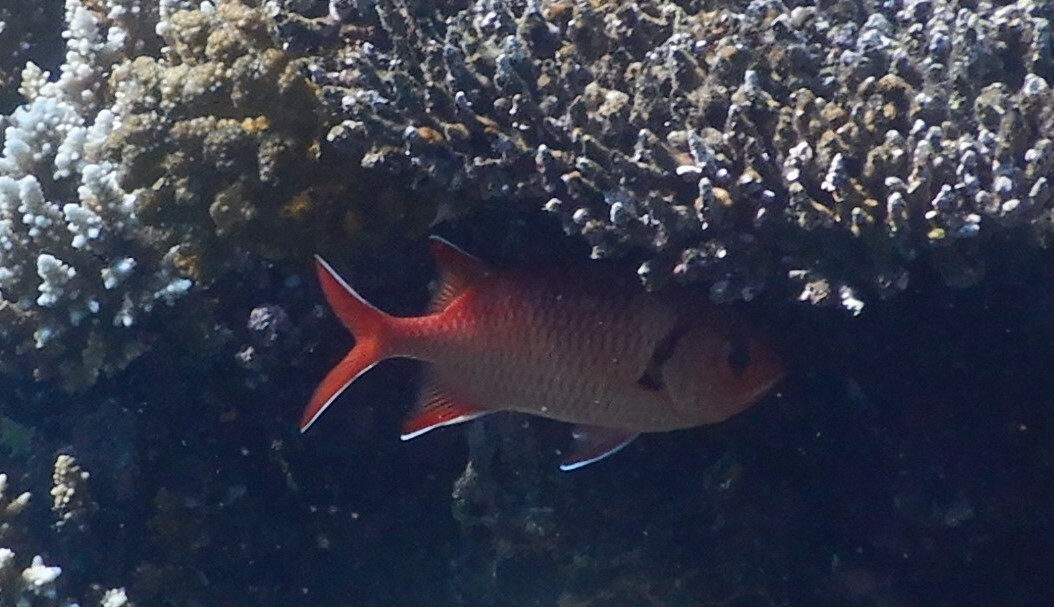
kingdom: Animalia
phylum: Chordata
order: Beryciformes
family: Holocentridae
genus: Myripristis
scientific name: Myripristis murdjan
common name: Big-eye soldierfish
